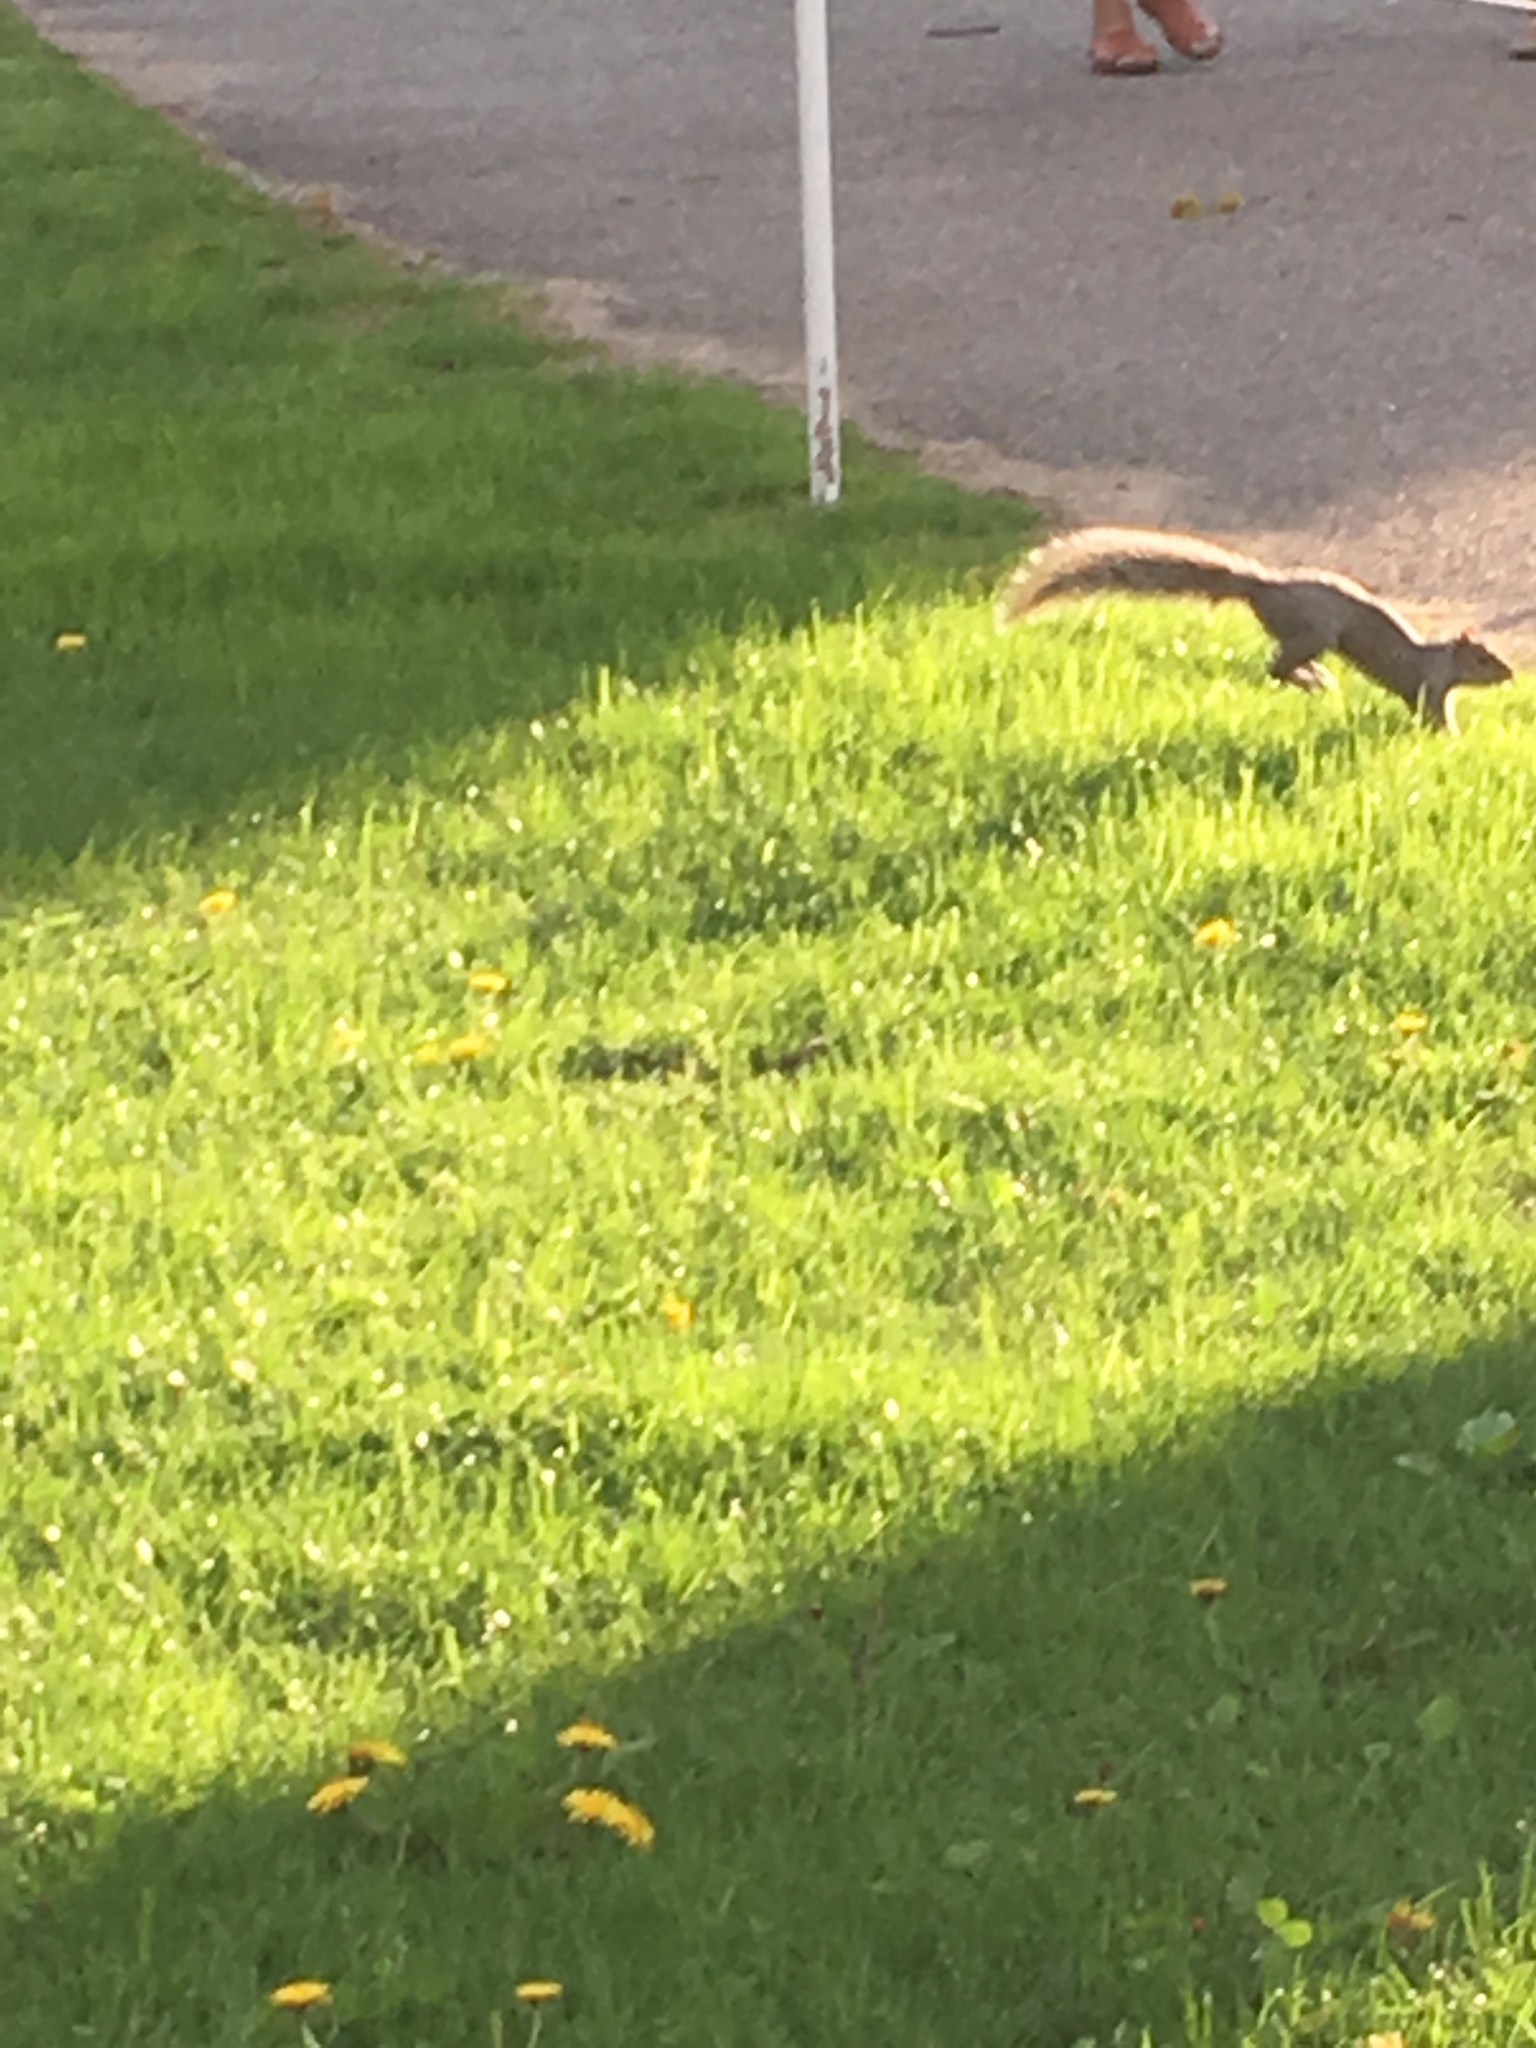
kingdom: Animalia
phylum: Chordata
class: Mammalia
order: Rodentia
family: Sciuridae
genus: Sciurus
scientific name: Sciurus carolinensis
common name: Eastern gray squirrel
